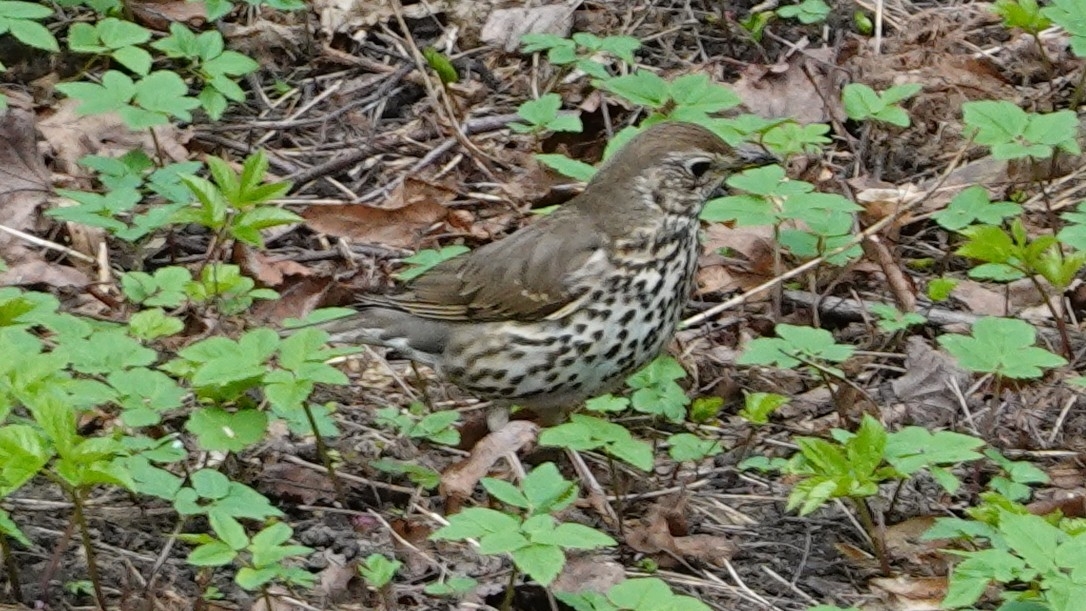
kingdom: Animalia
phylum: Chordata
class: Aves
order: Passeriformes
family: Turdidae
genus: Turdus
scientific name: Turdus philomelos
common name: Song thrush
